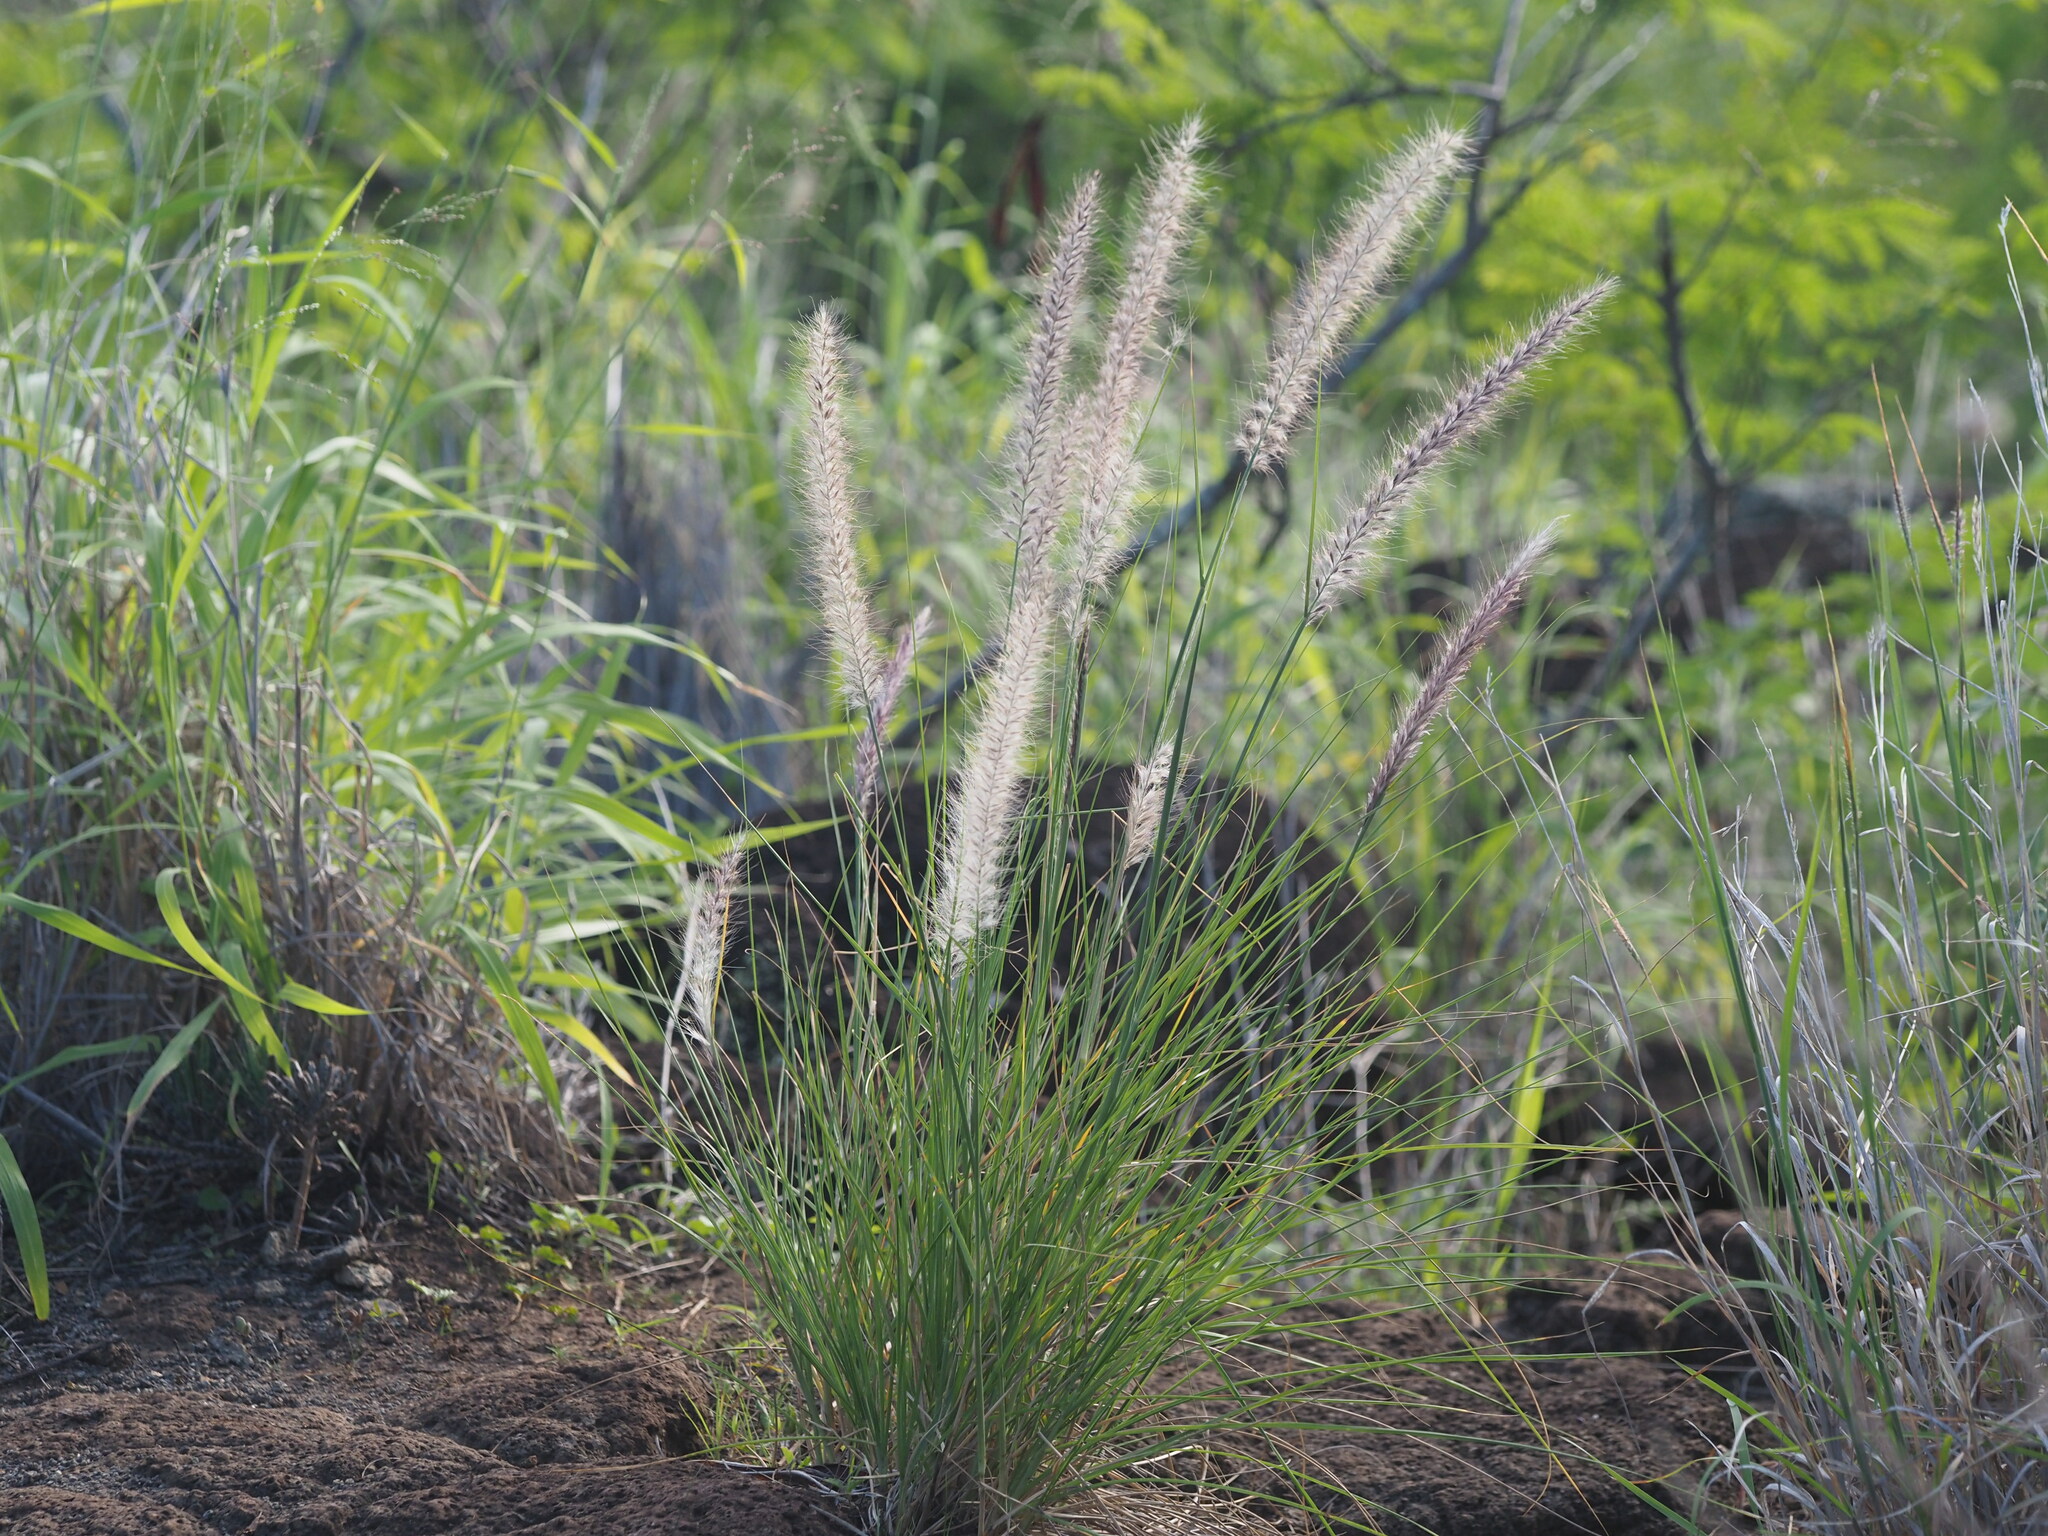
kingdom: Plantae
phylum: Tracheophyta
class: Liliopsida
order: Poales
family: Poaceae
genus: Cenchrus
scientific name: Cenchrus setaceus
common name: Crimson fountaingrass
